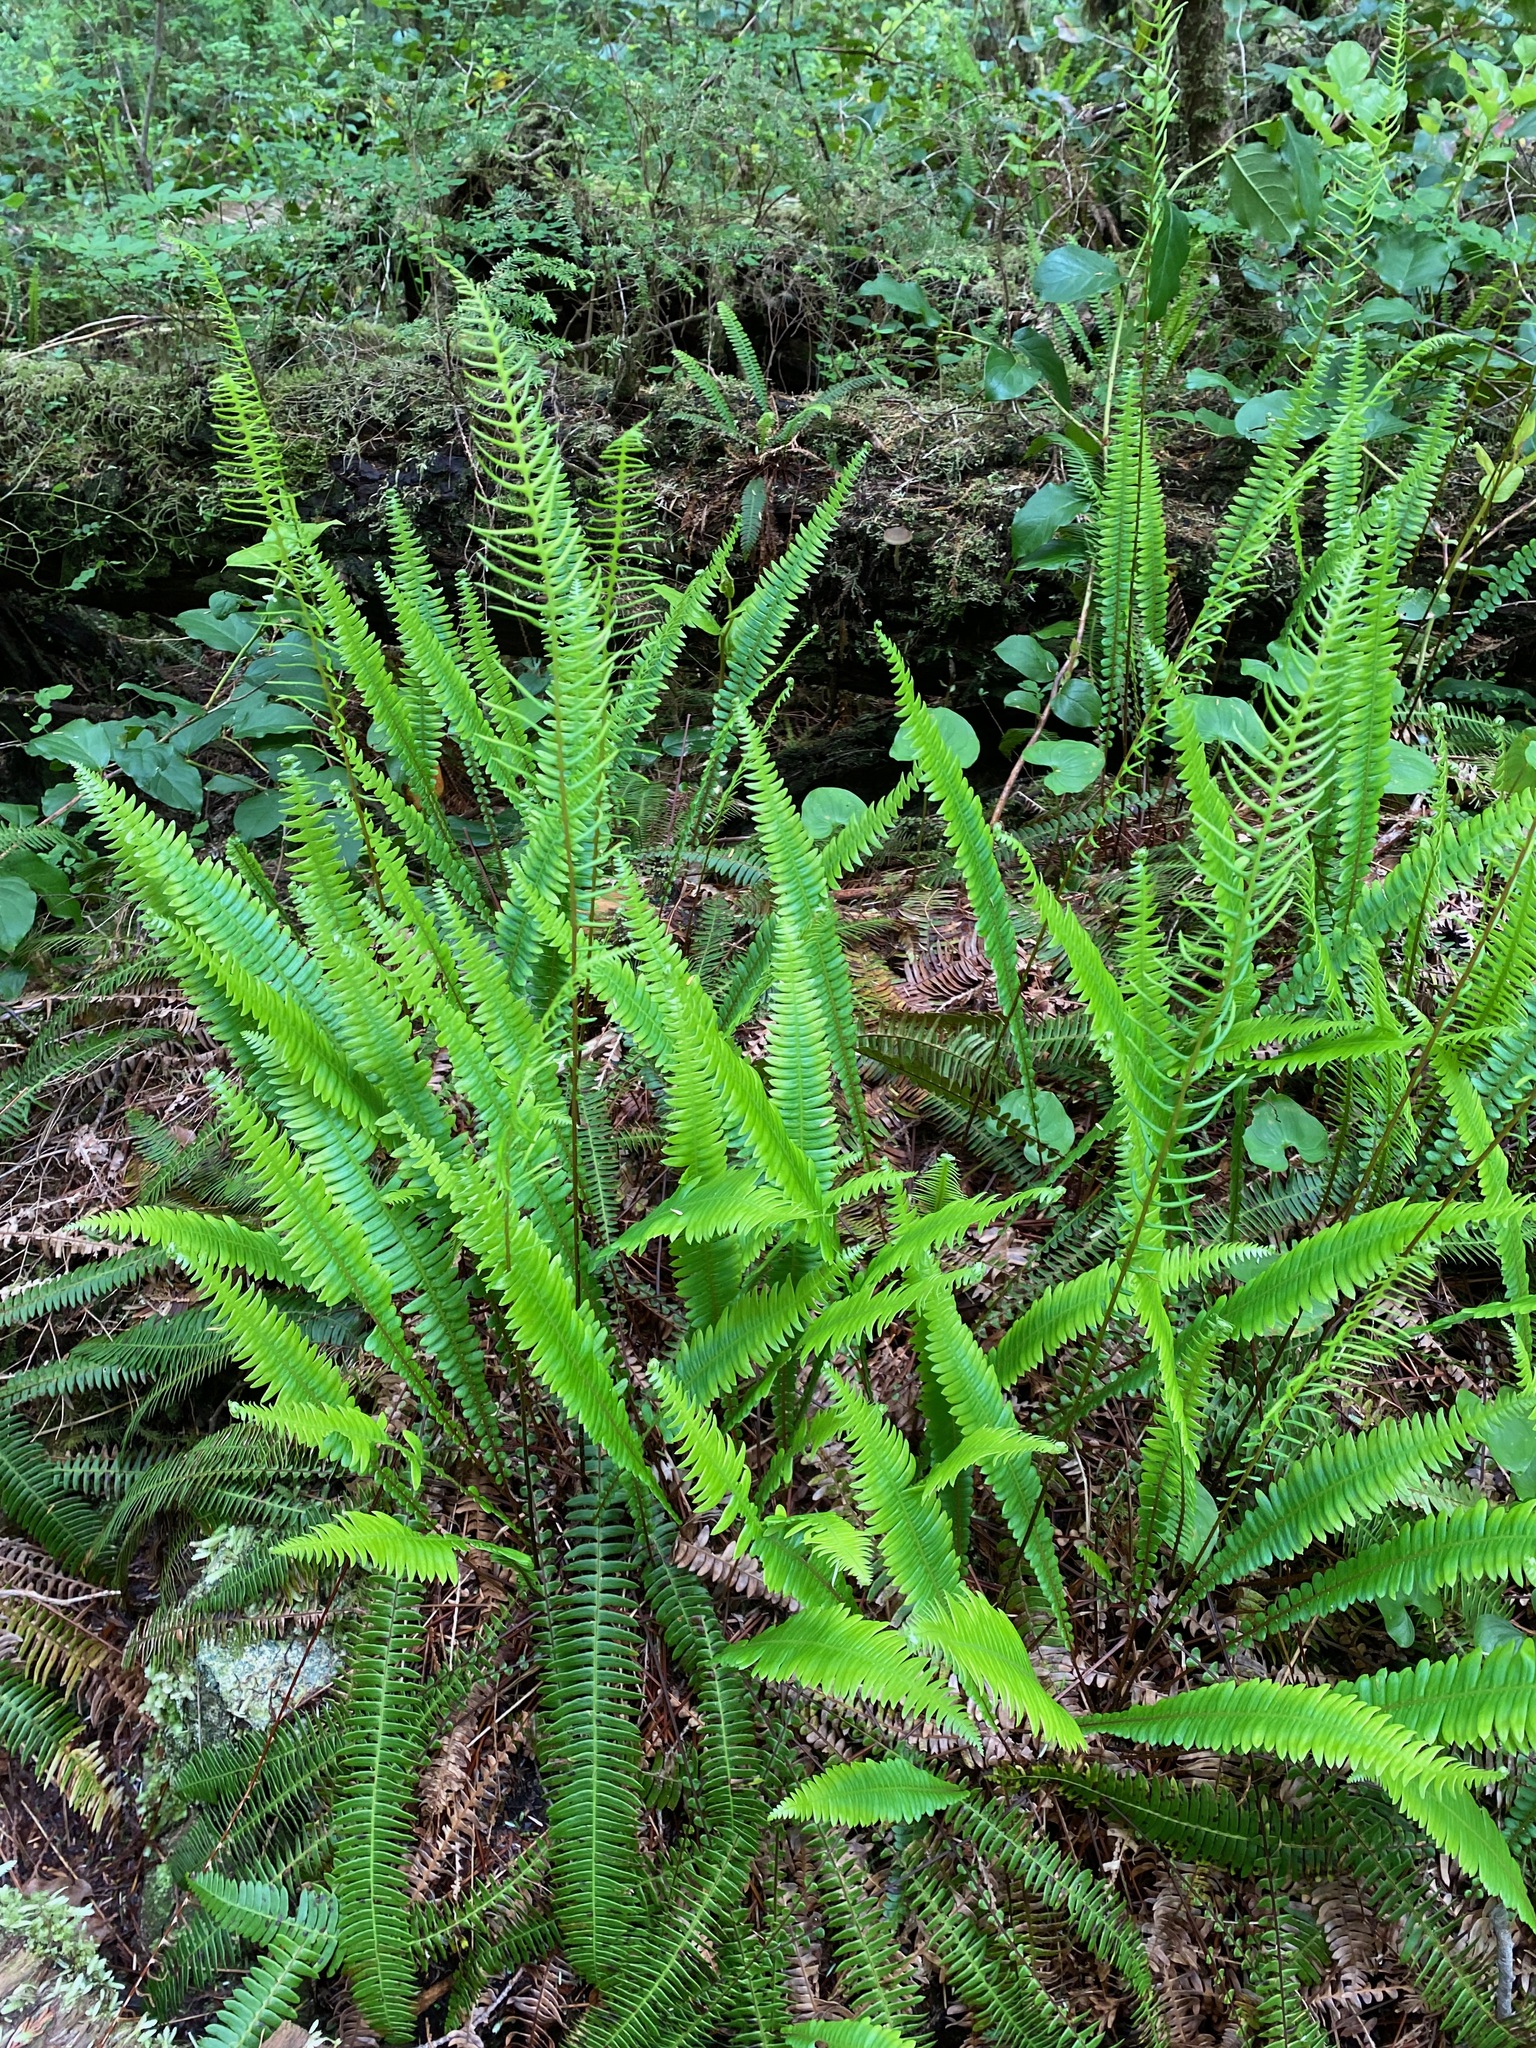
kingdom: Plantae
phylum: Tracheophyta
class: Polypodiopsida
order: Polypodiales
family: Blechnaceae
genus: Struthiopteris
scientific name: Struthiopteris spicant
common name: Deer fern
